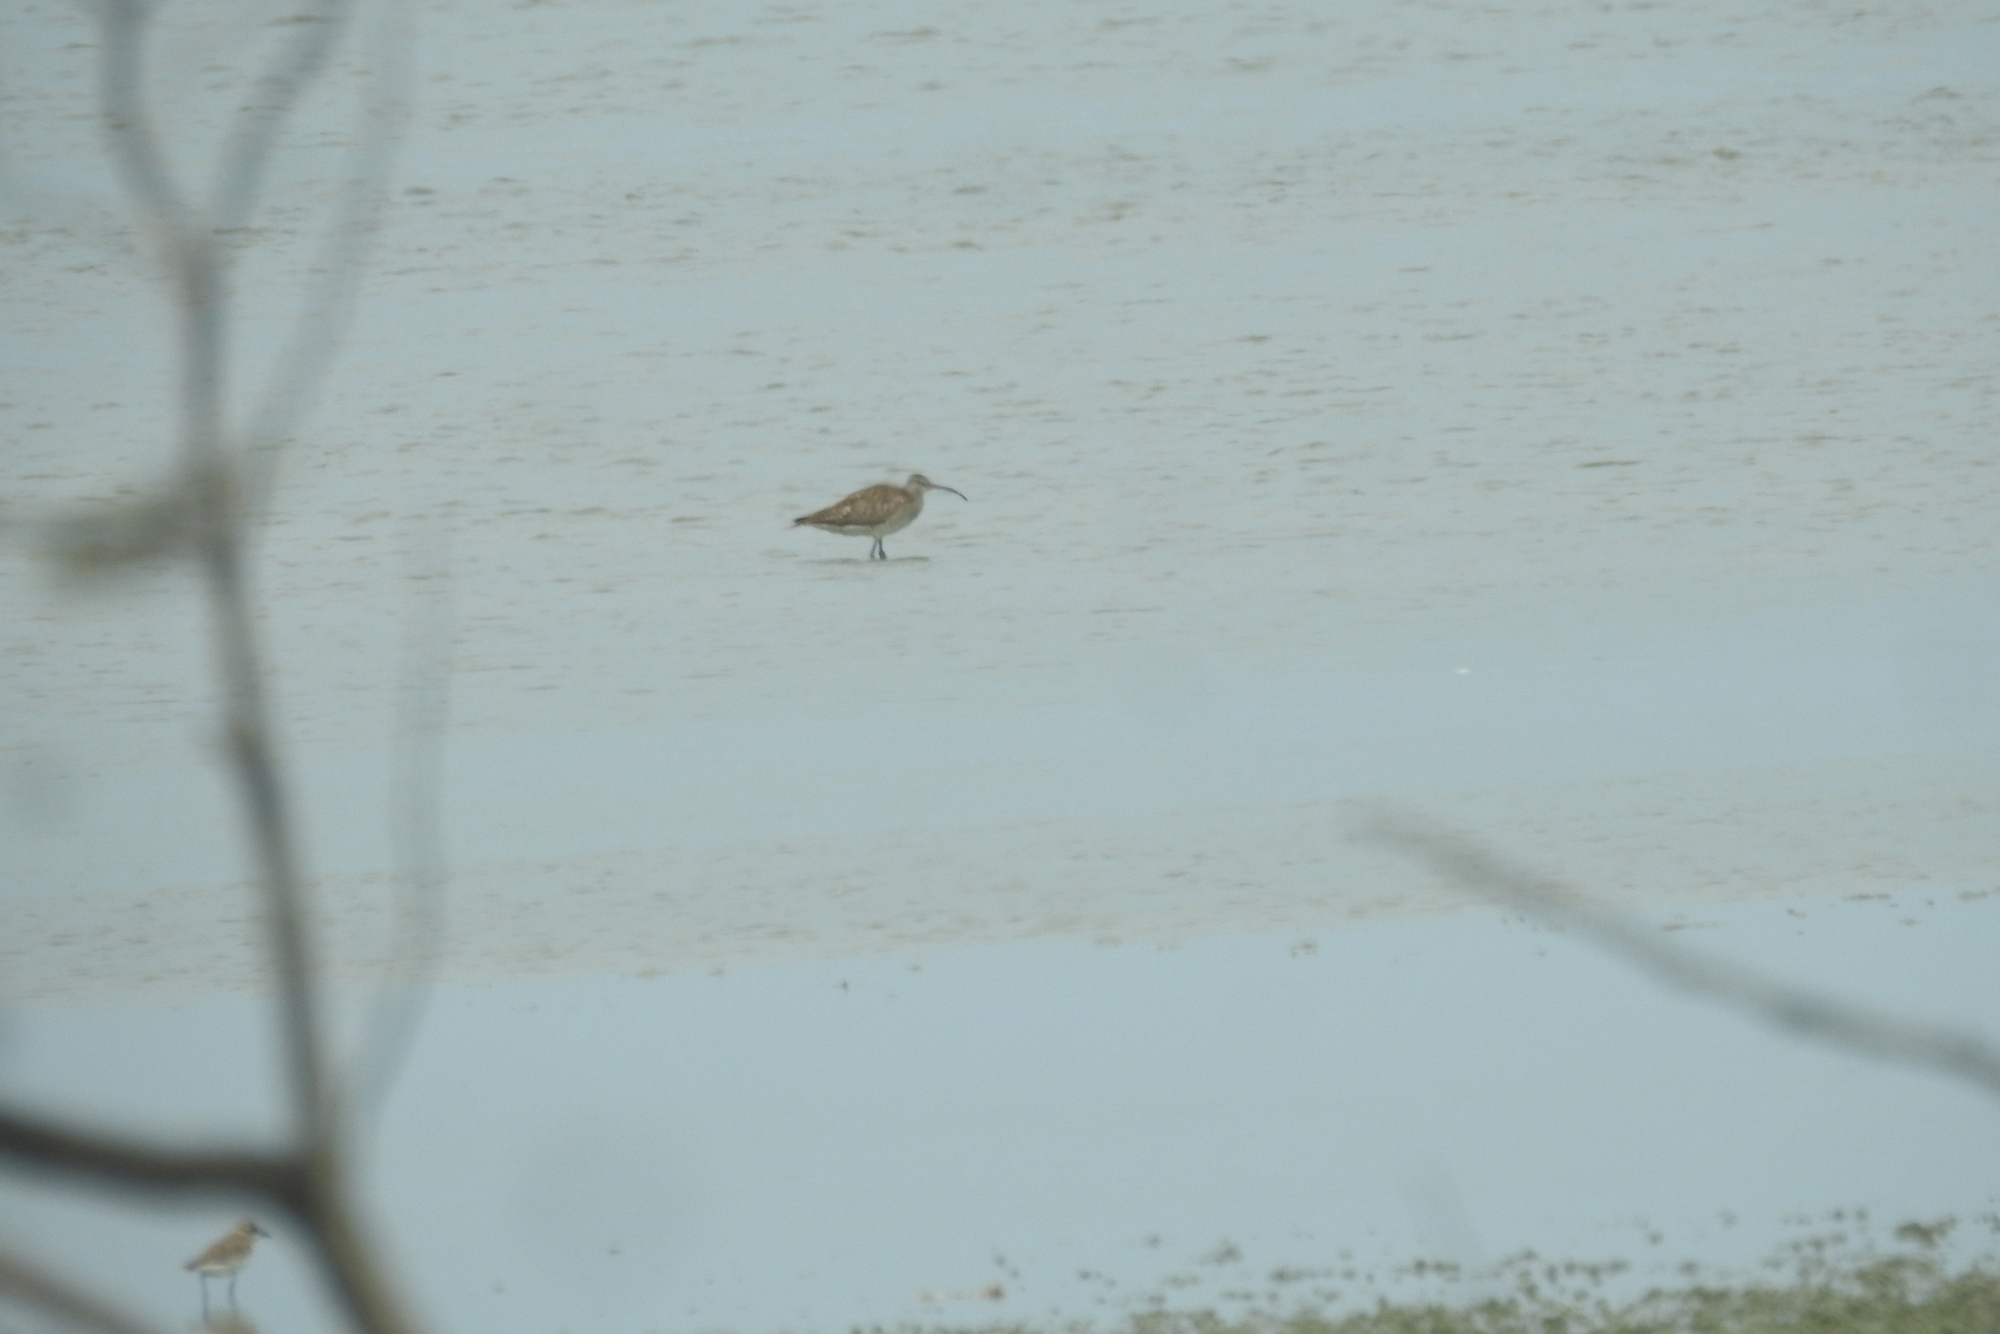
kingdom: Animalia
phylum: Chordata
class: Aves
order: Charadriiformes
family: Scolopacidae
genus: Numenius
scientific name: Numenius phaeopus
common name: Whimbrel
